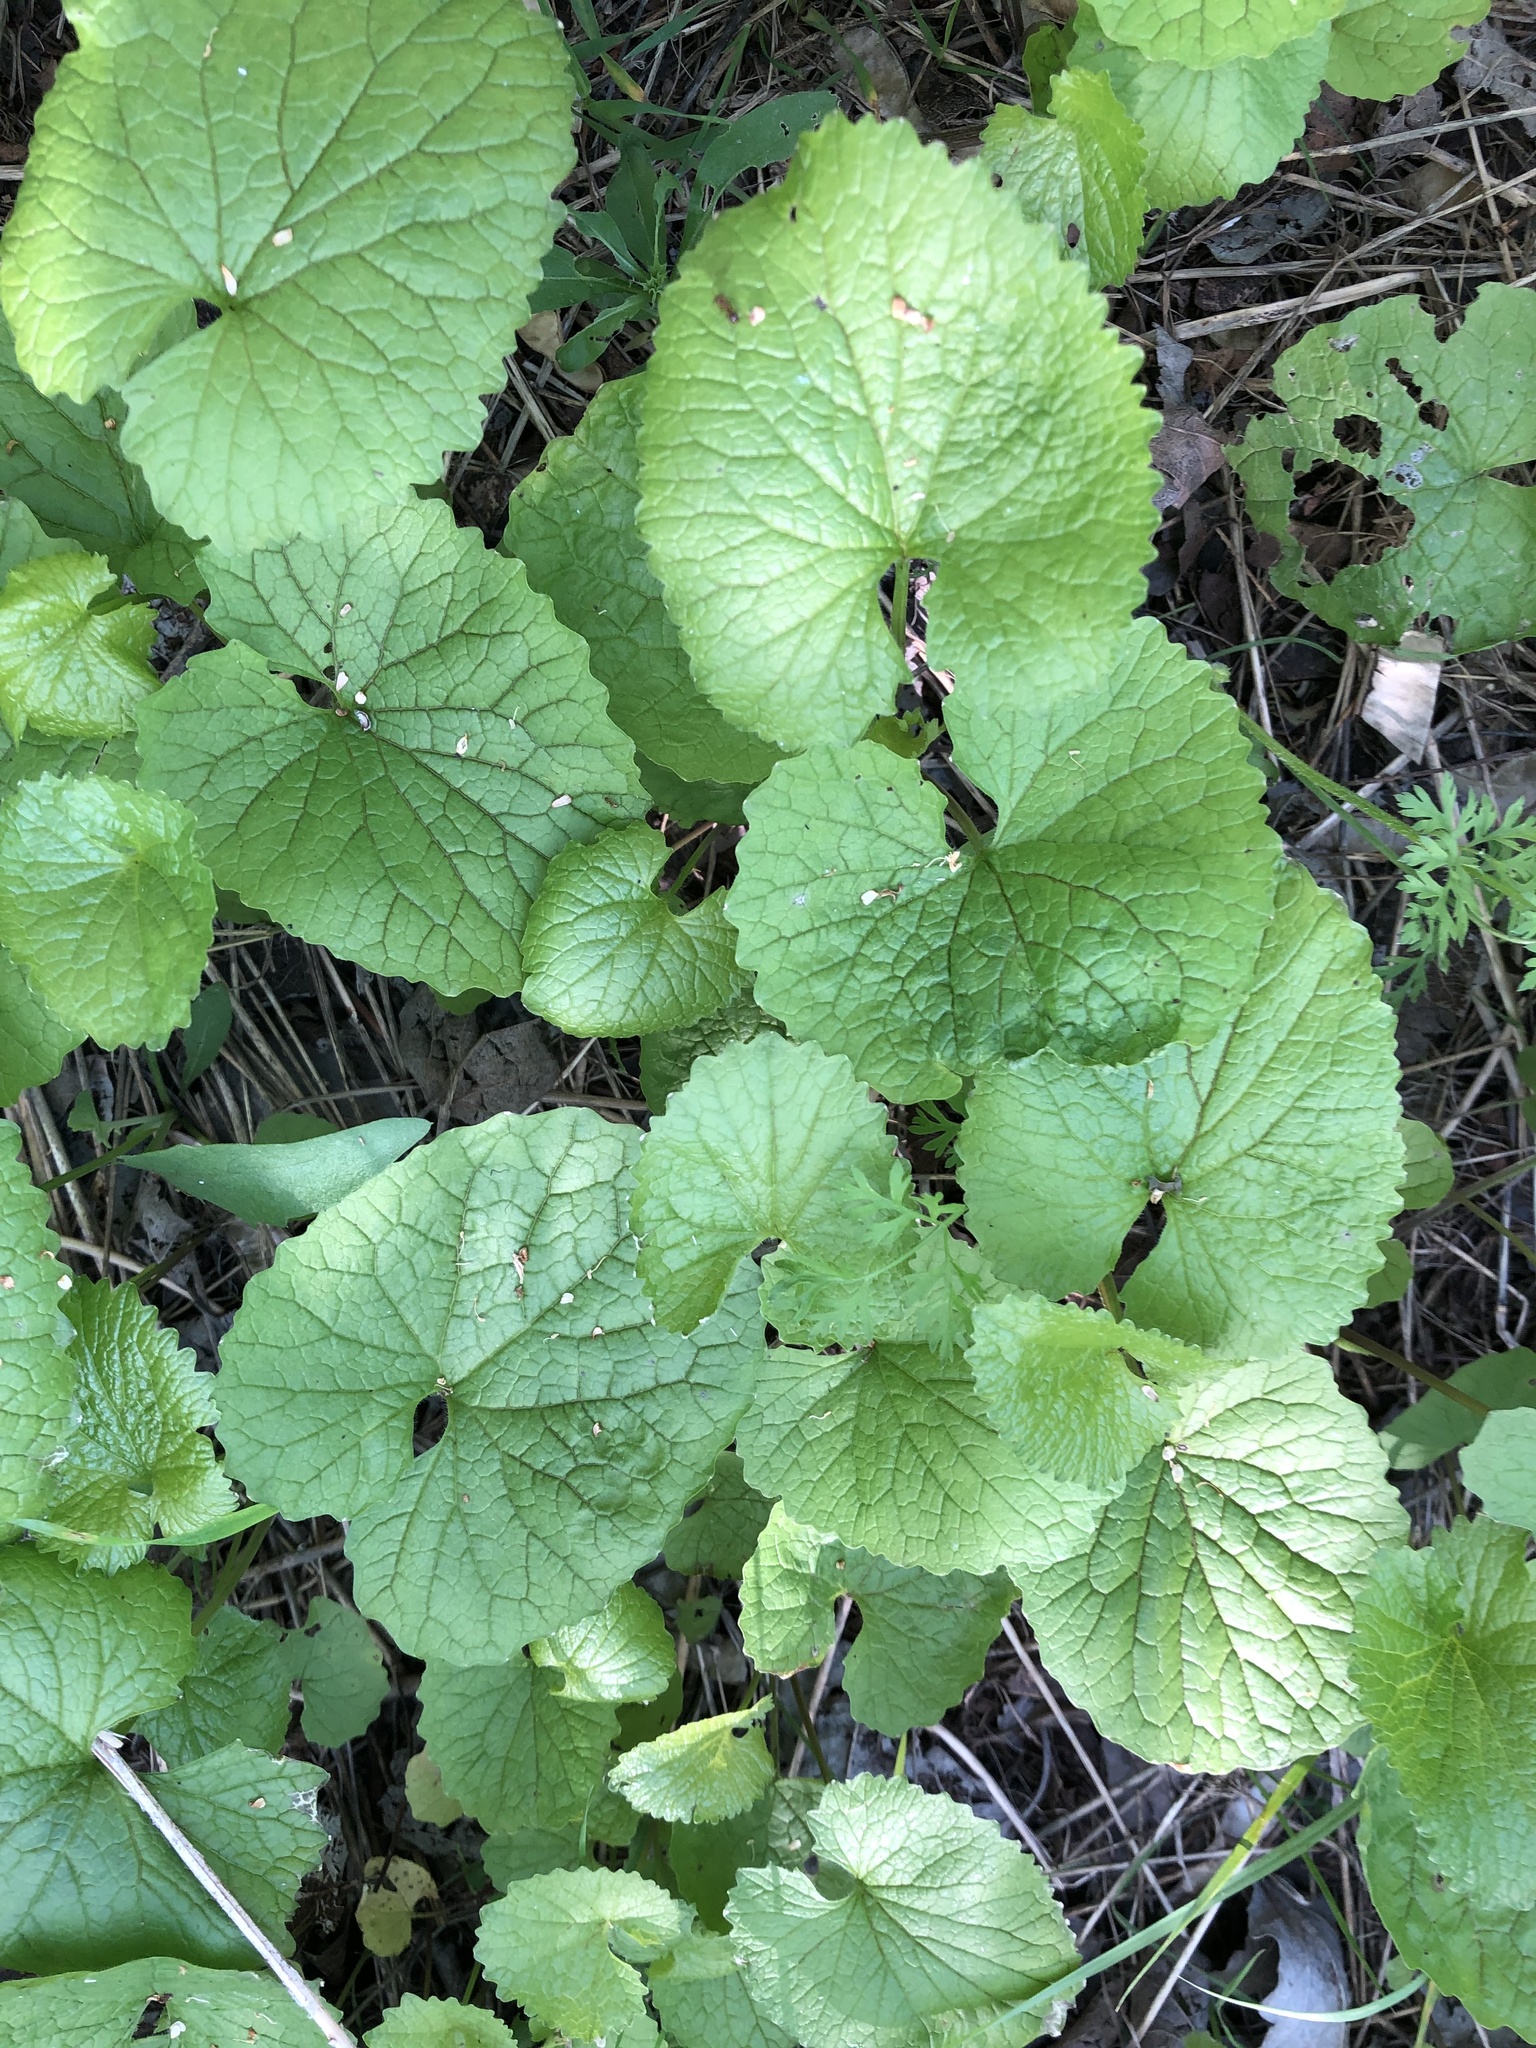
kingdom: Plantae
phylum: Tracheophyta
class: Magnoliopsida
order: Brassicales
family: Brassicaceae
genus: Alliaria
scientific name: Alliaria petiolata
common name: Garlic mustard
